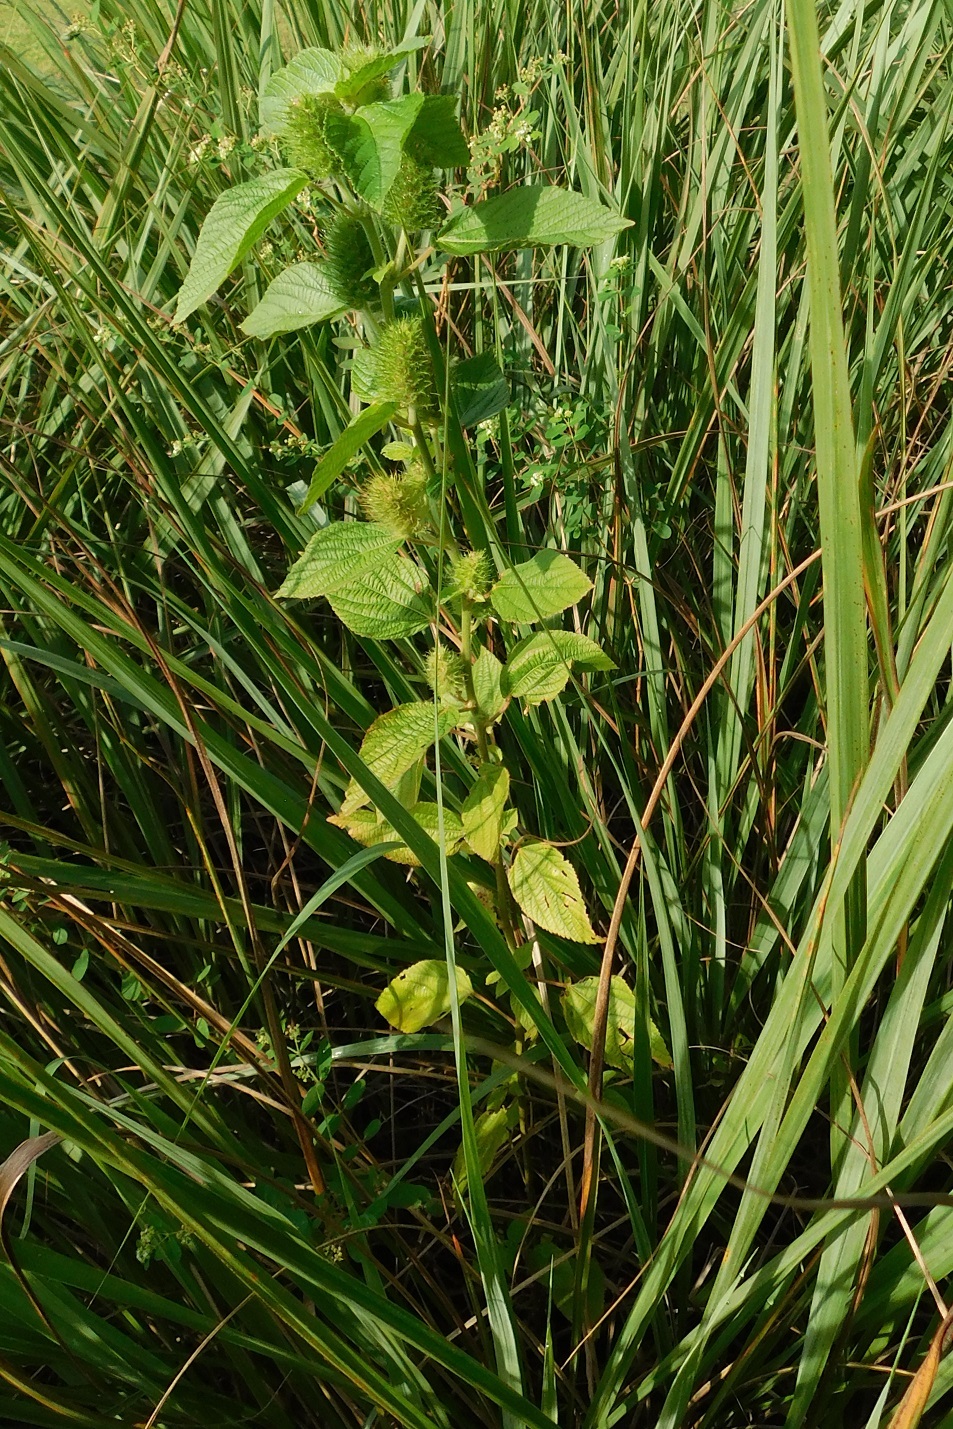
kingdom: Plantae
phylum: Tracheophyta
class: Magnoliopsida
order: Malpighiales
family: Euphorbiaceae
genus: Acalypha
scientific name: Acalypha arvensis
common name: Field copperleaf
